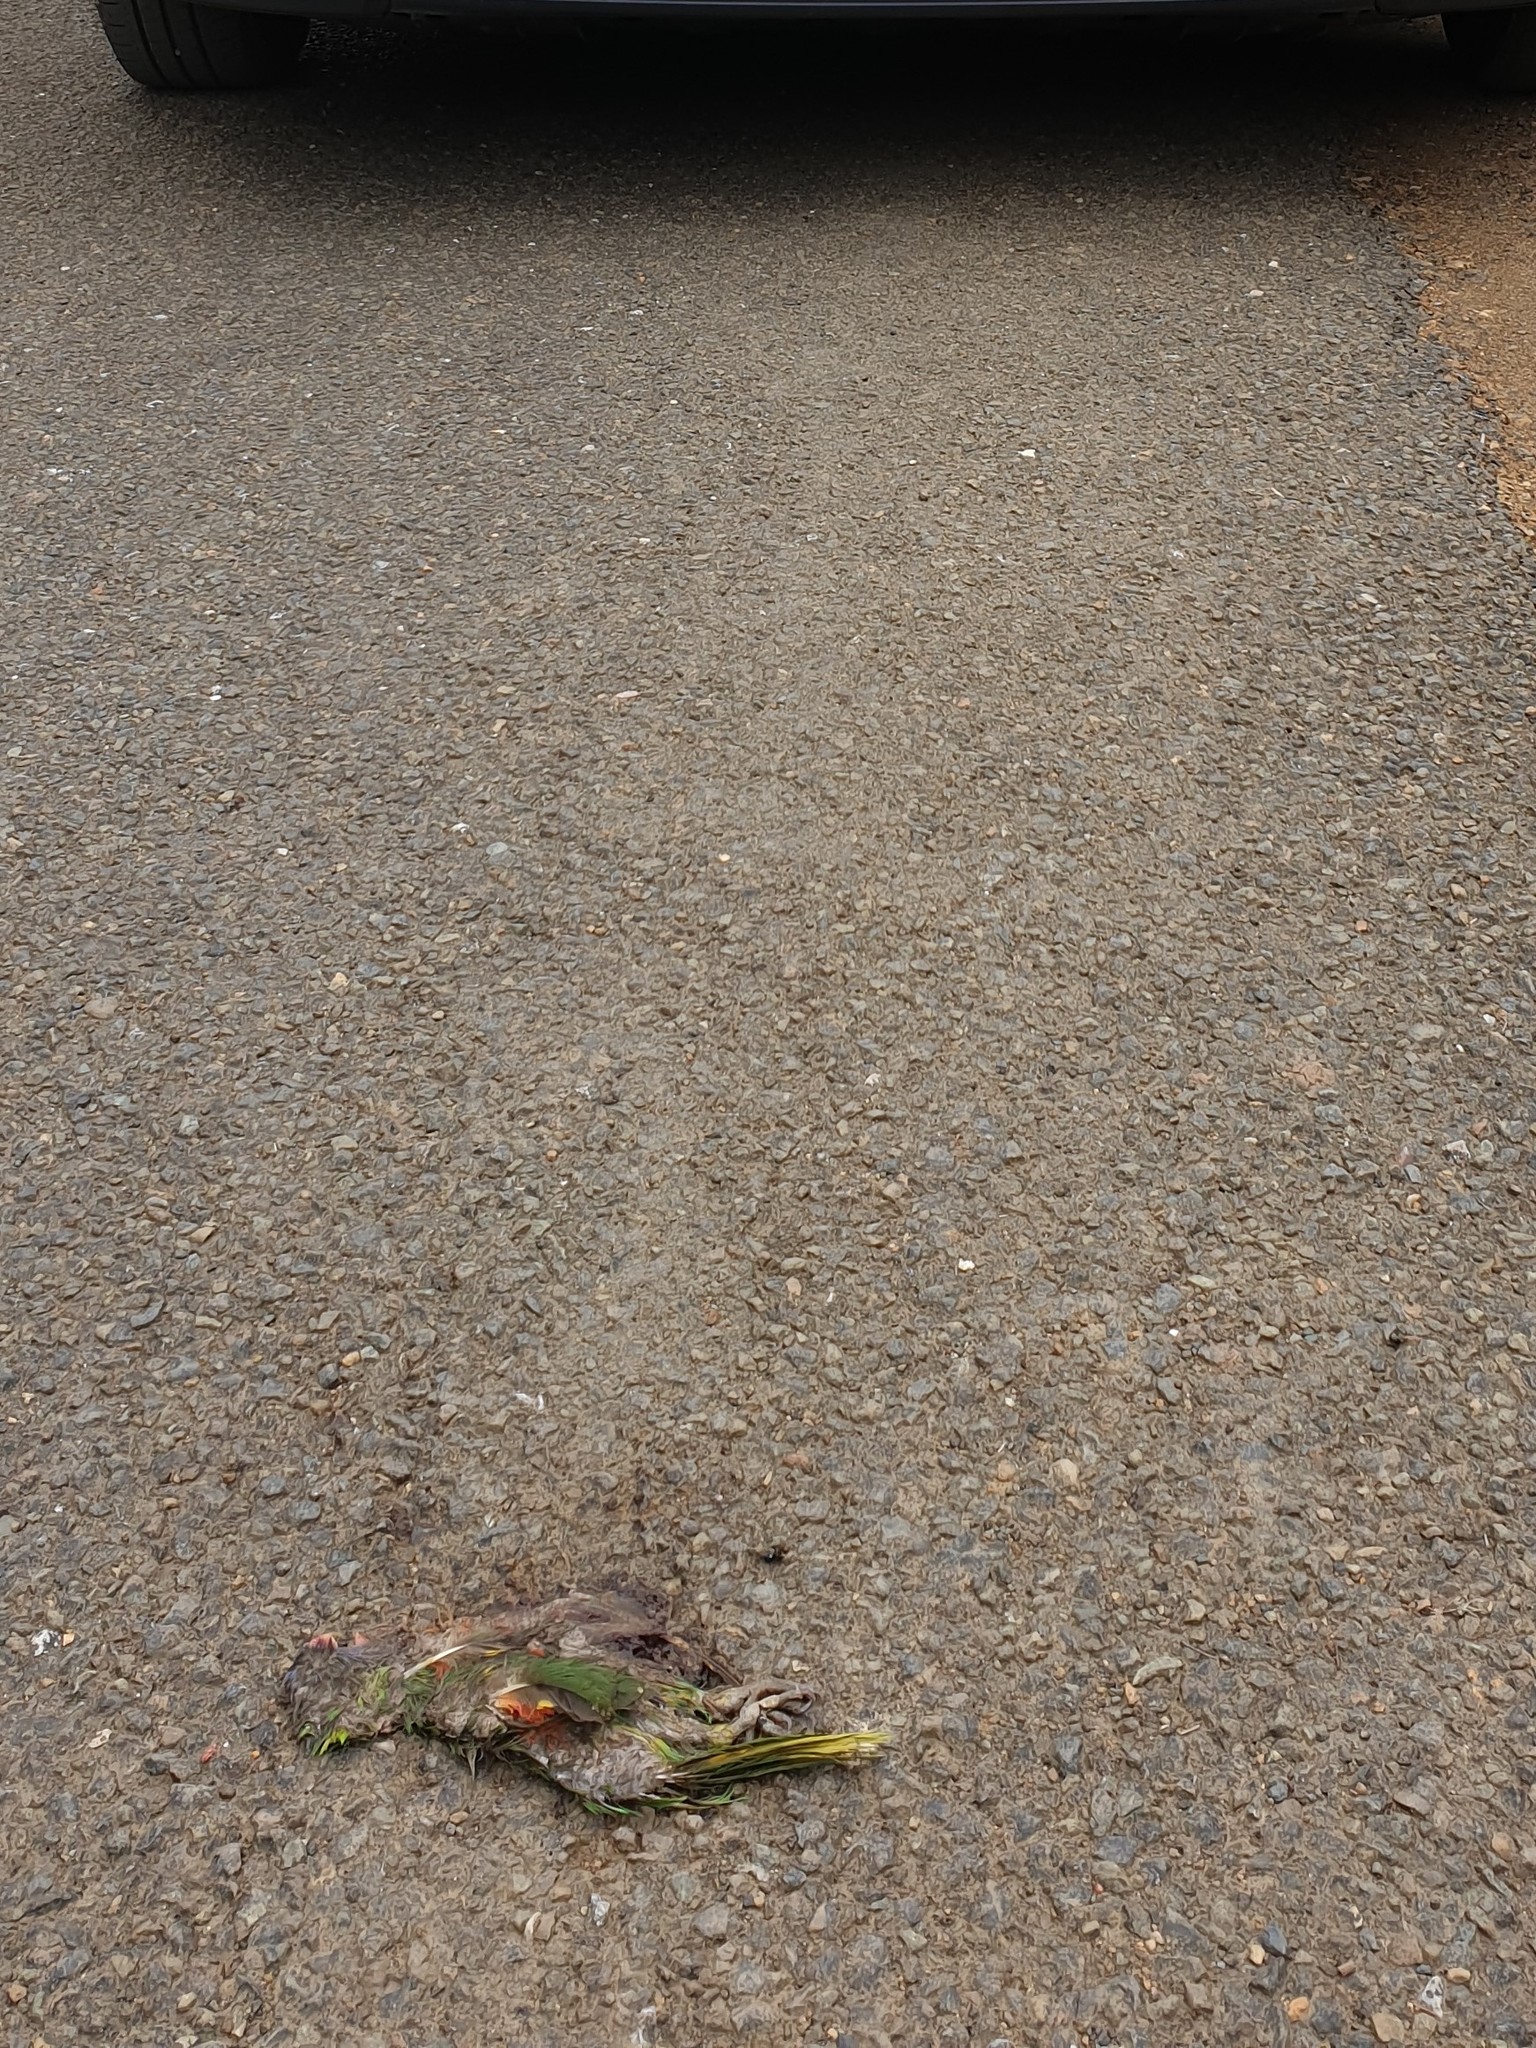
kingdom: Animalia
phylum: Chordata
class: Aves
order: Psittaciformes
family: Psittacidae
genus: Trichoglossus
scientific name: Trichoglossus haematodus
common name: Coconut lorikeet
